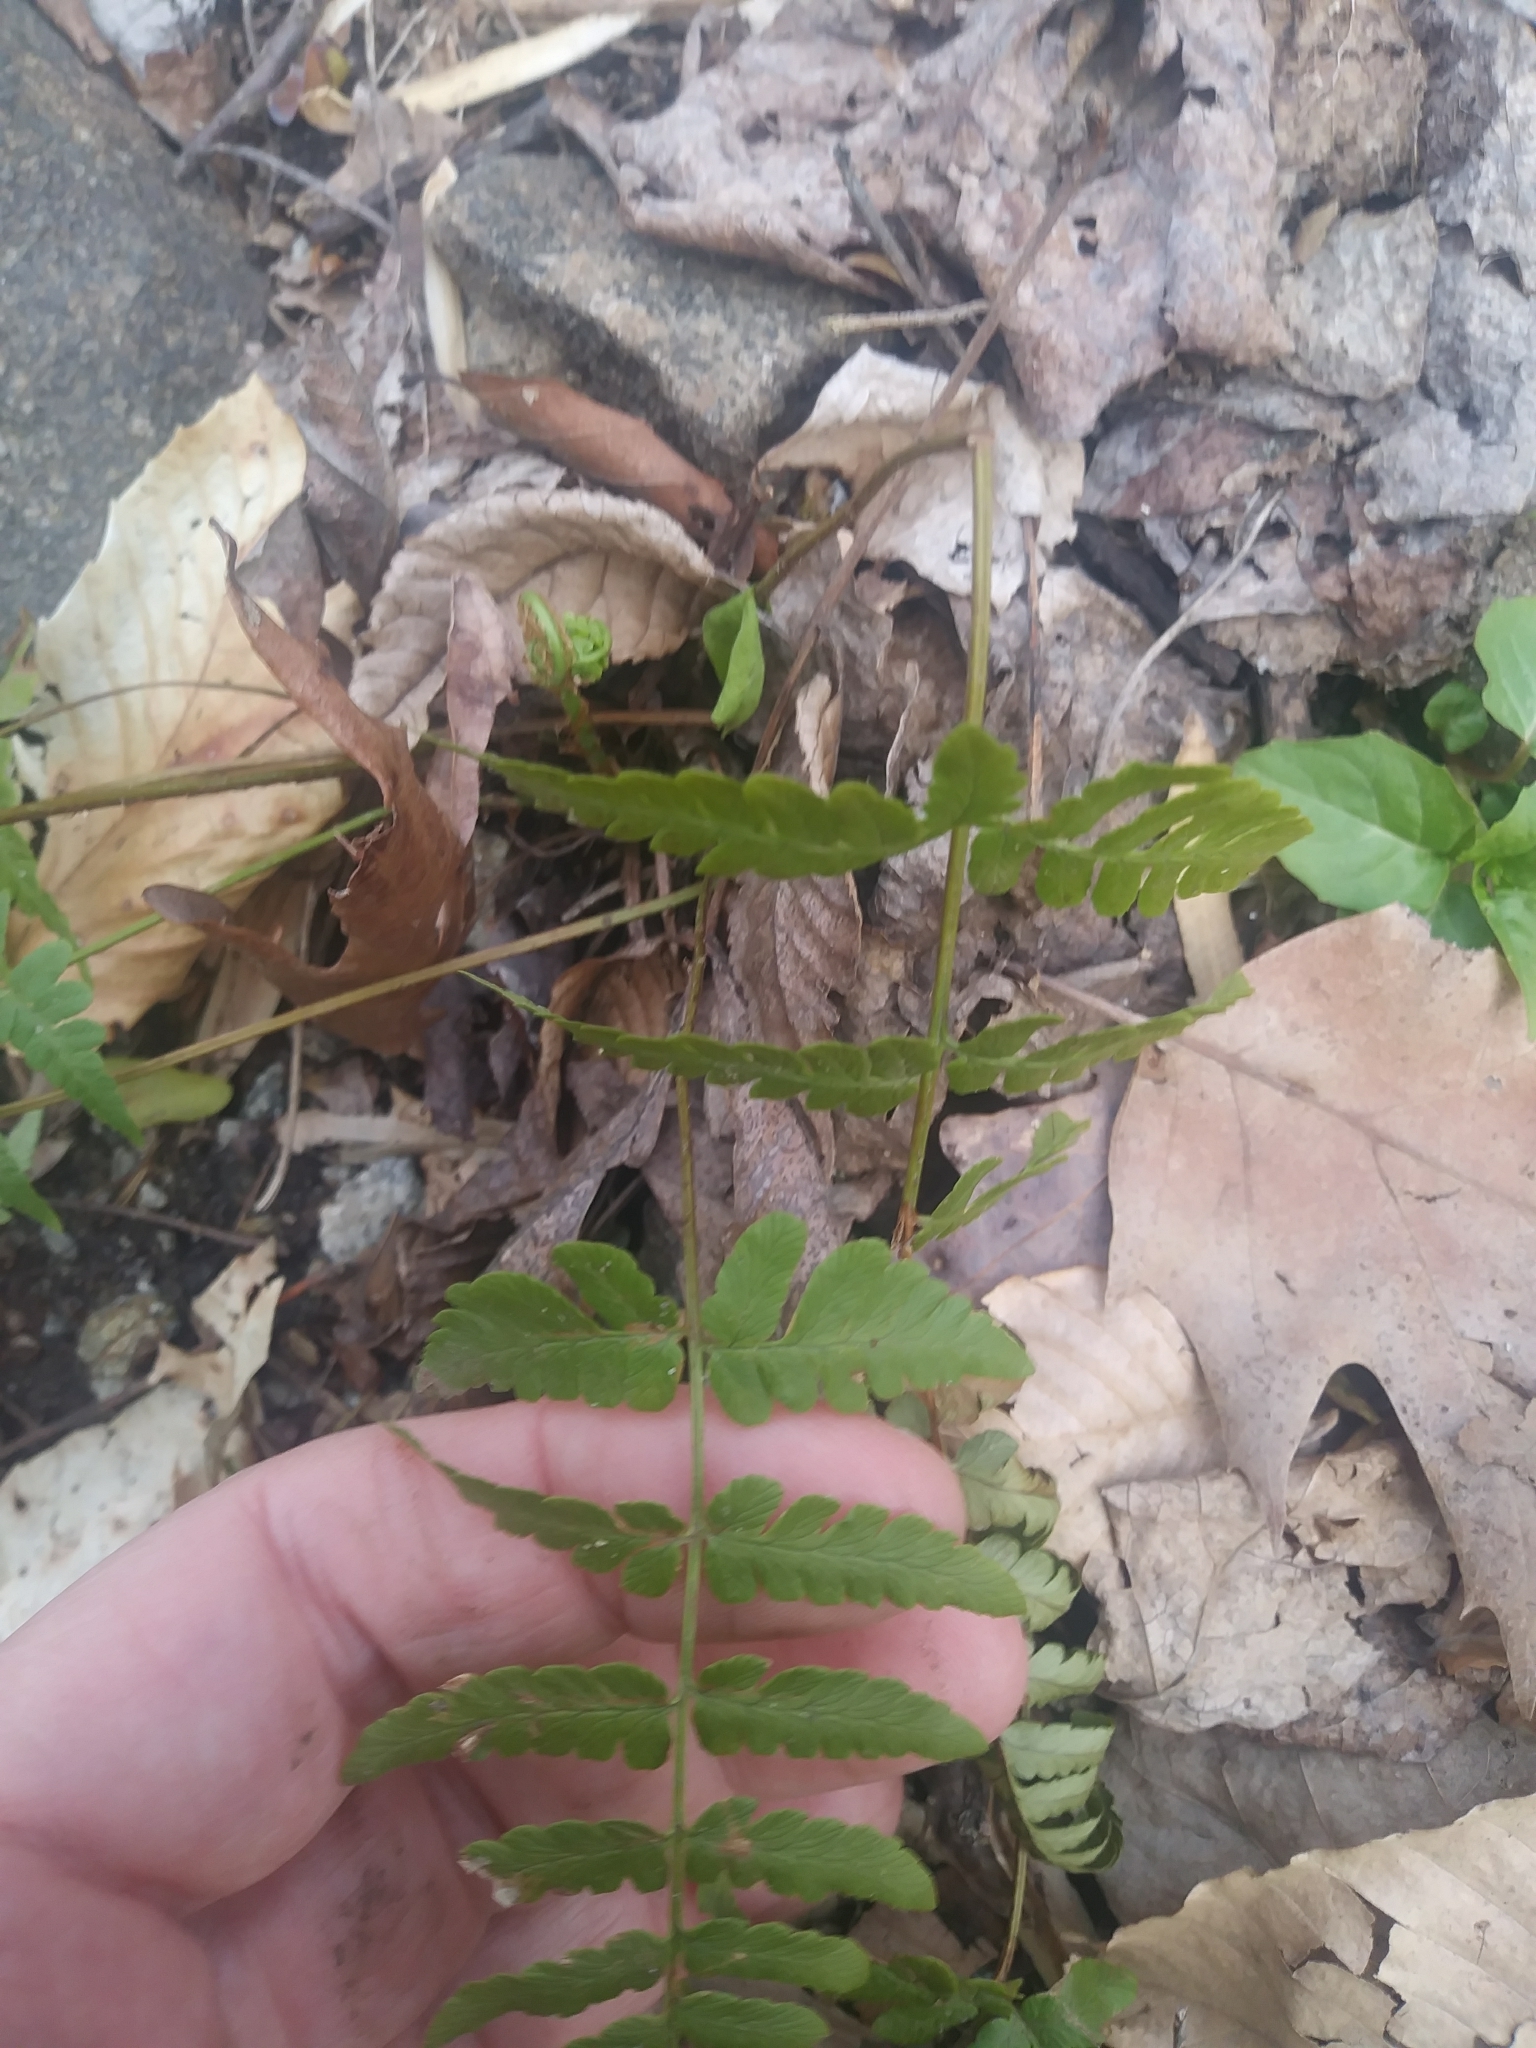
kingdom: Plantae
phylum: Tracheophyta
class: Polypodiopsida
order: Polypodiales
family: Dryopteridaceae
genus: Dryopteris
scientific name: Dryopteris marginalis
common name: Marginal wood fern
